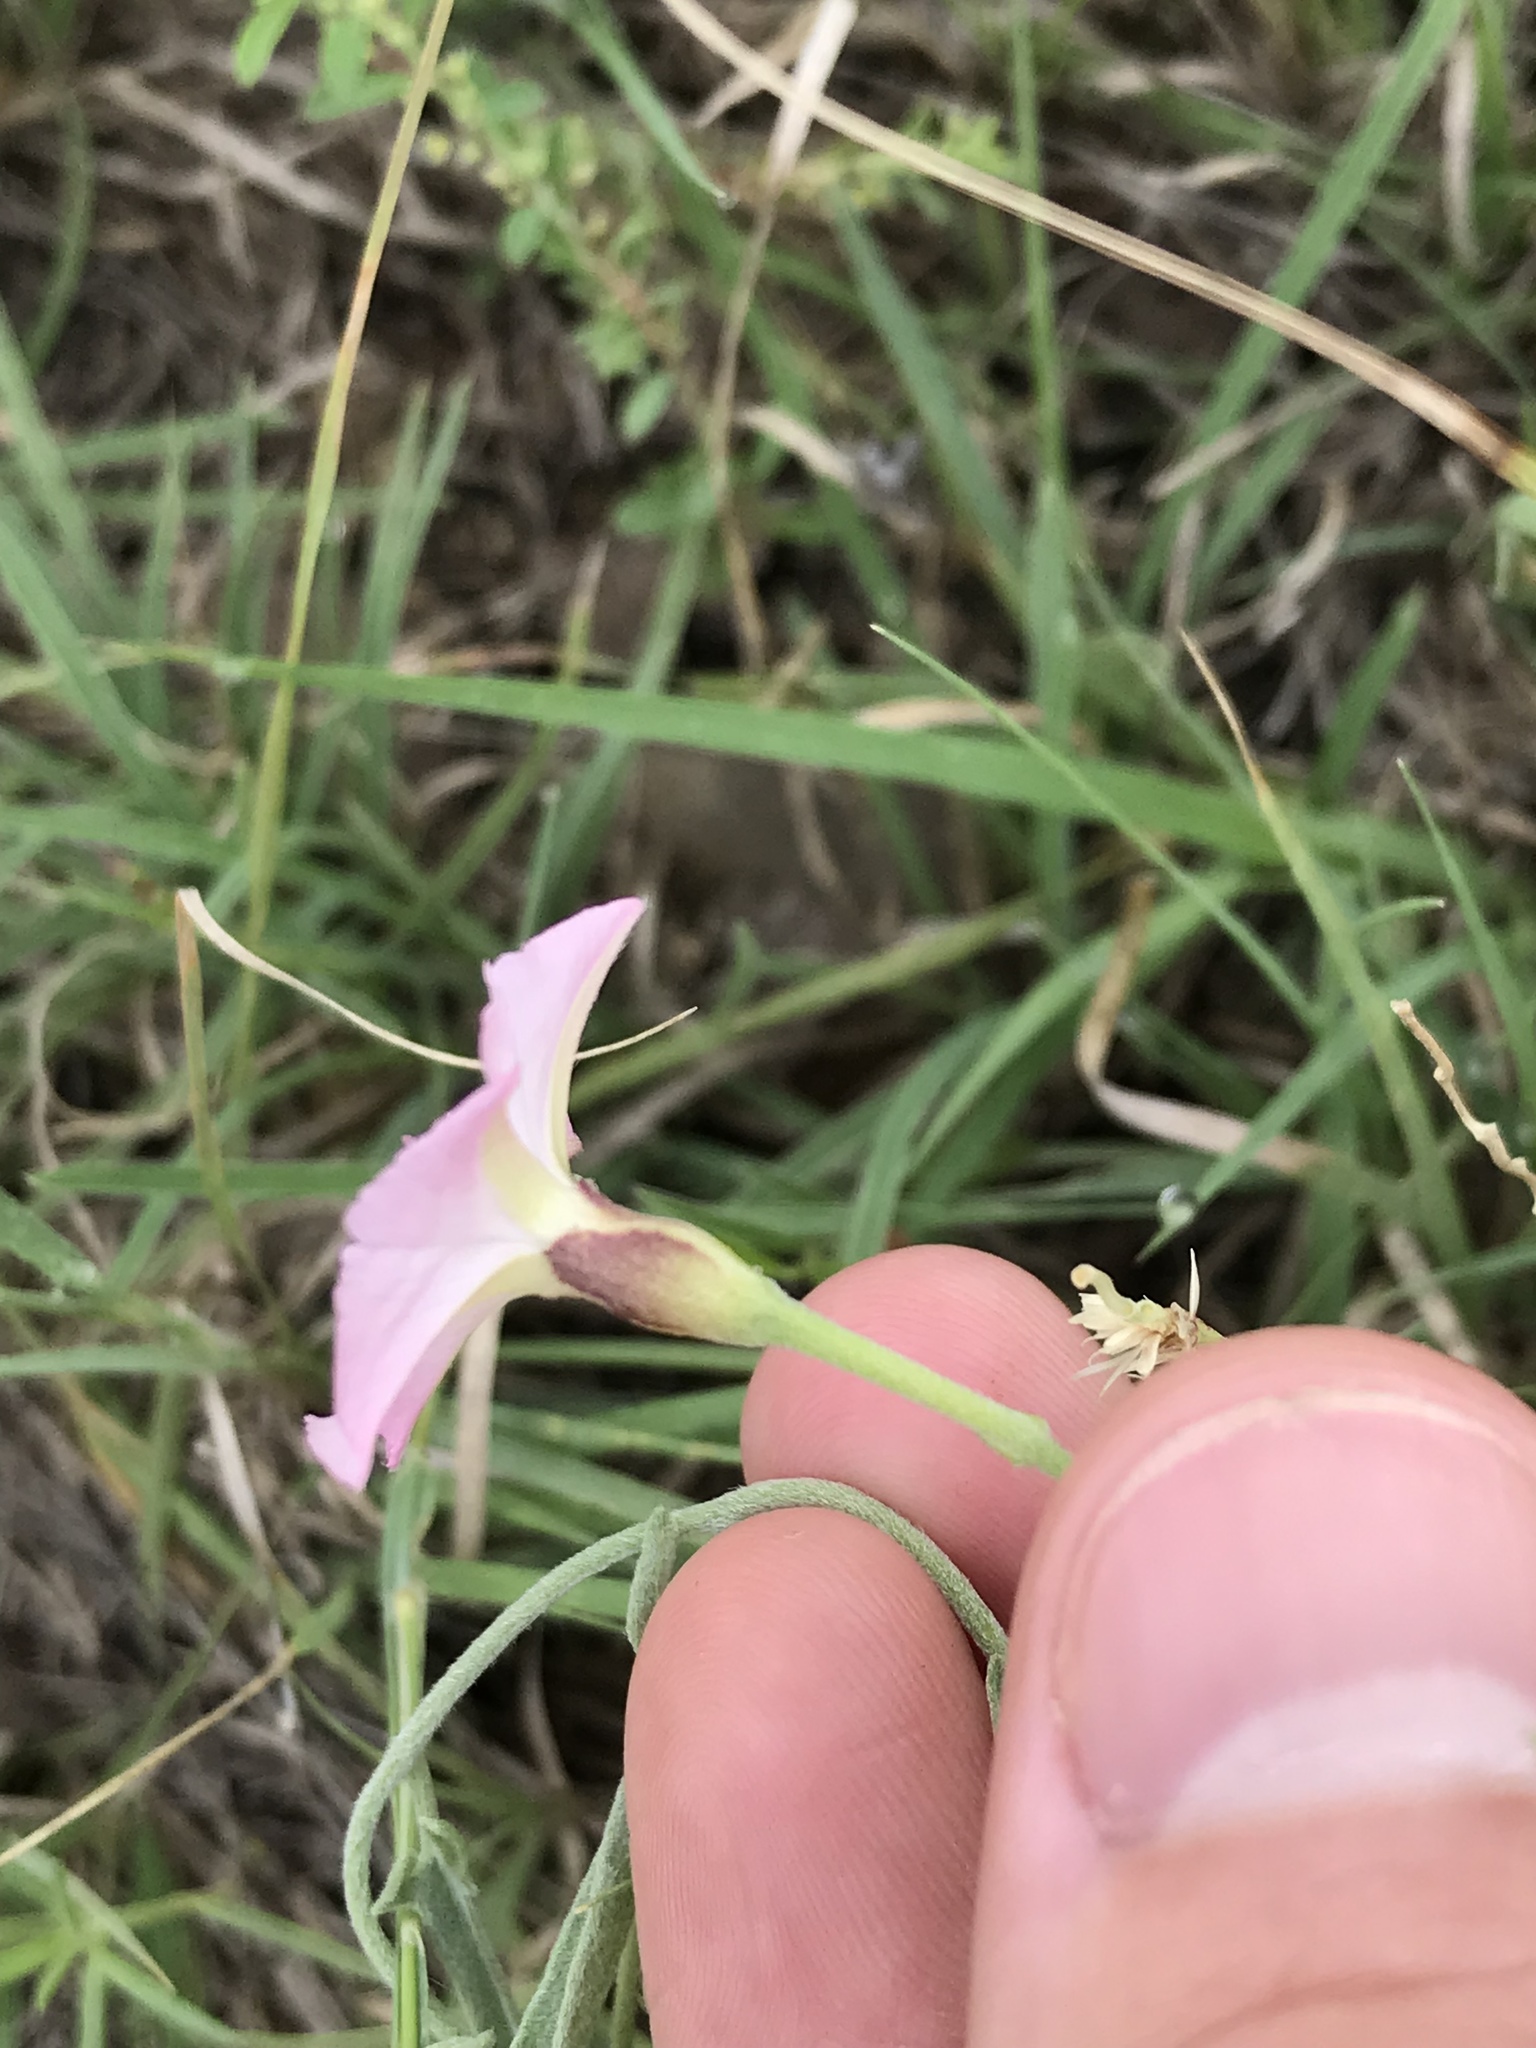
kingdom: Plantae
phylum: Tracheophyta
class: Magnoliopsida
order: Solanales
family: Convolvulaceae
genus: Convolvulus
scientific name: Convolvulus equitans
